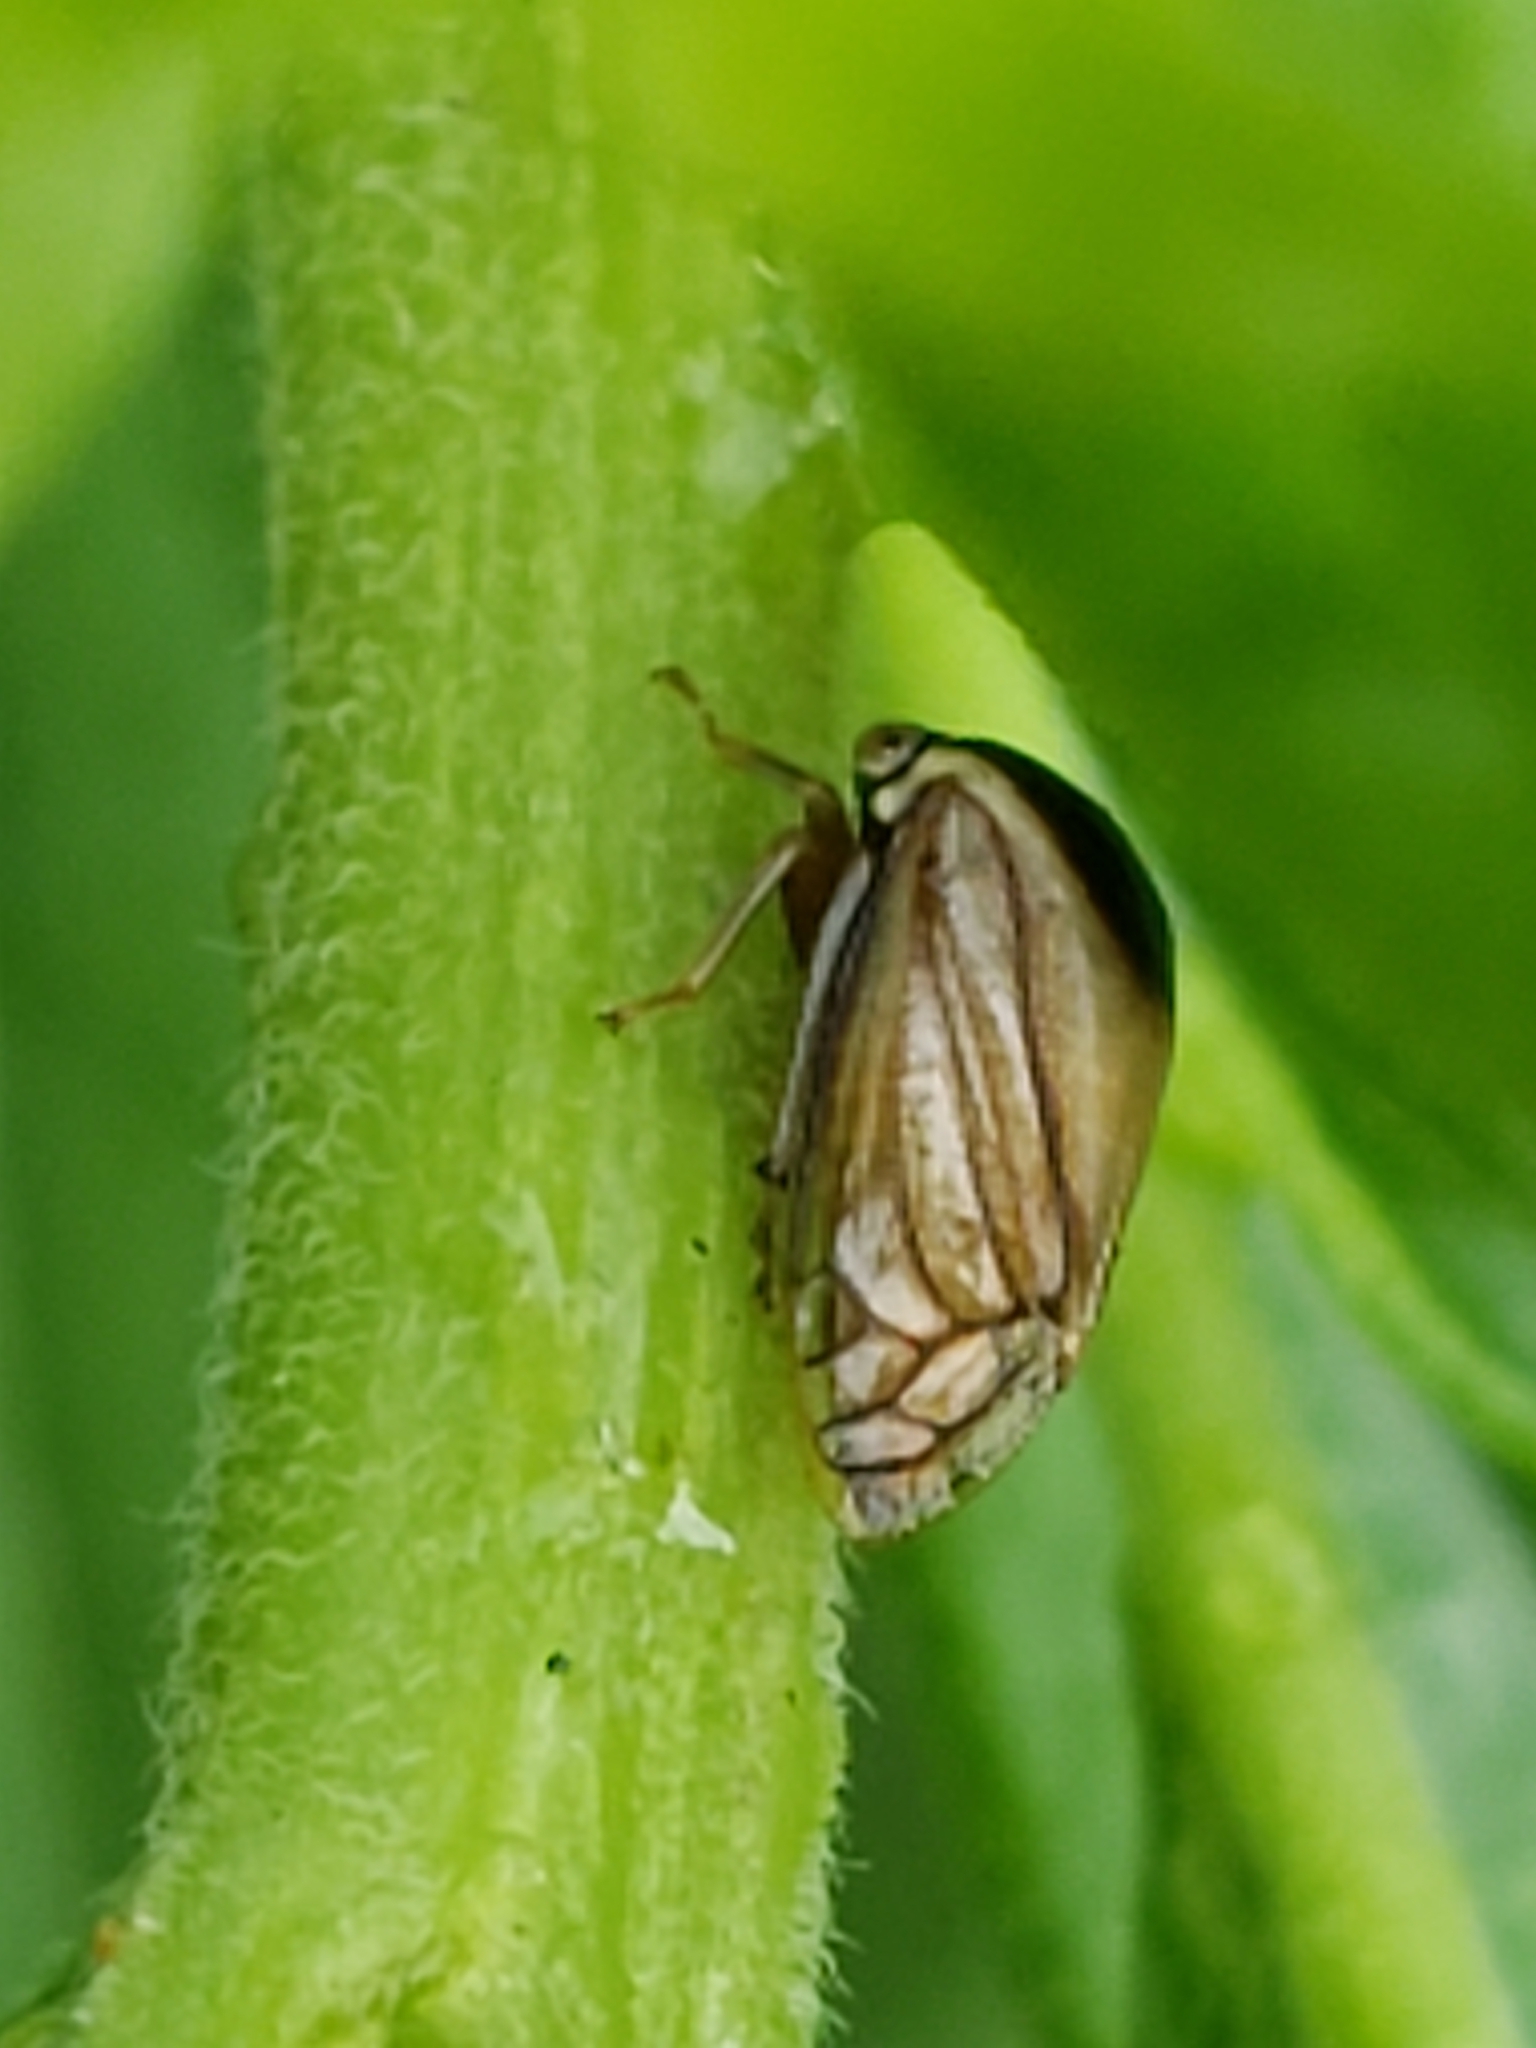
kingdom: Animalia
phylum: Arthropoda
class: Insecta
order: Hemiptera
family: Membracidae
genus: Acutalis
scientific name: Acutalis tartarea
